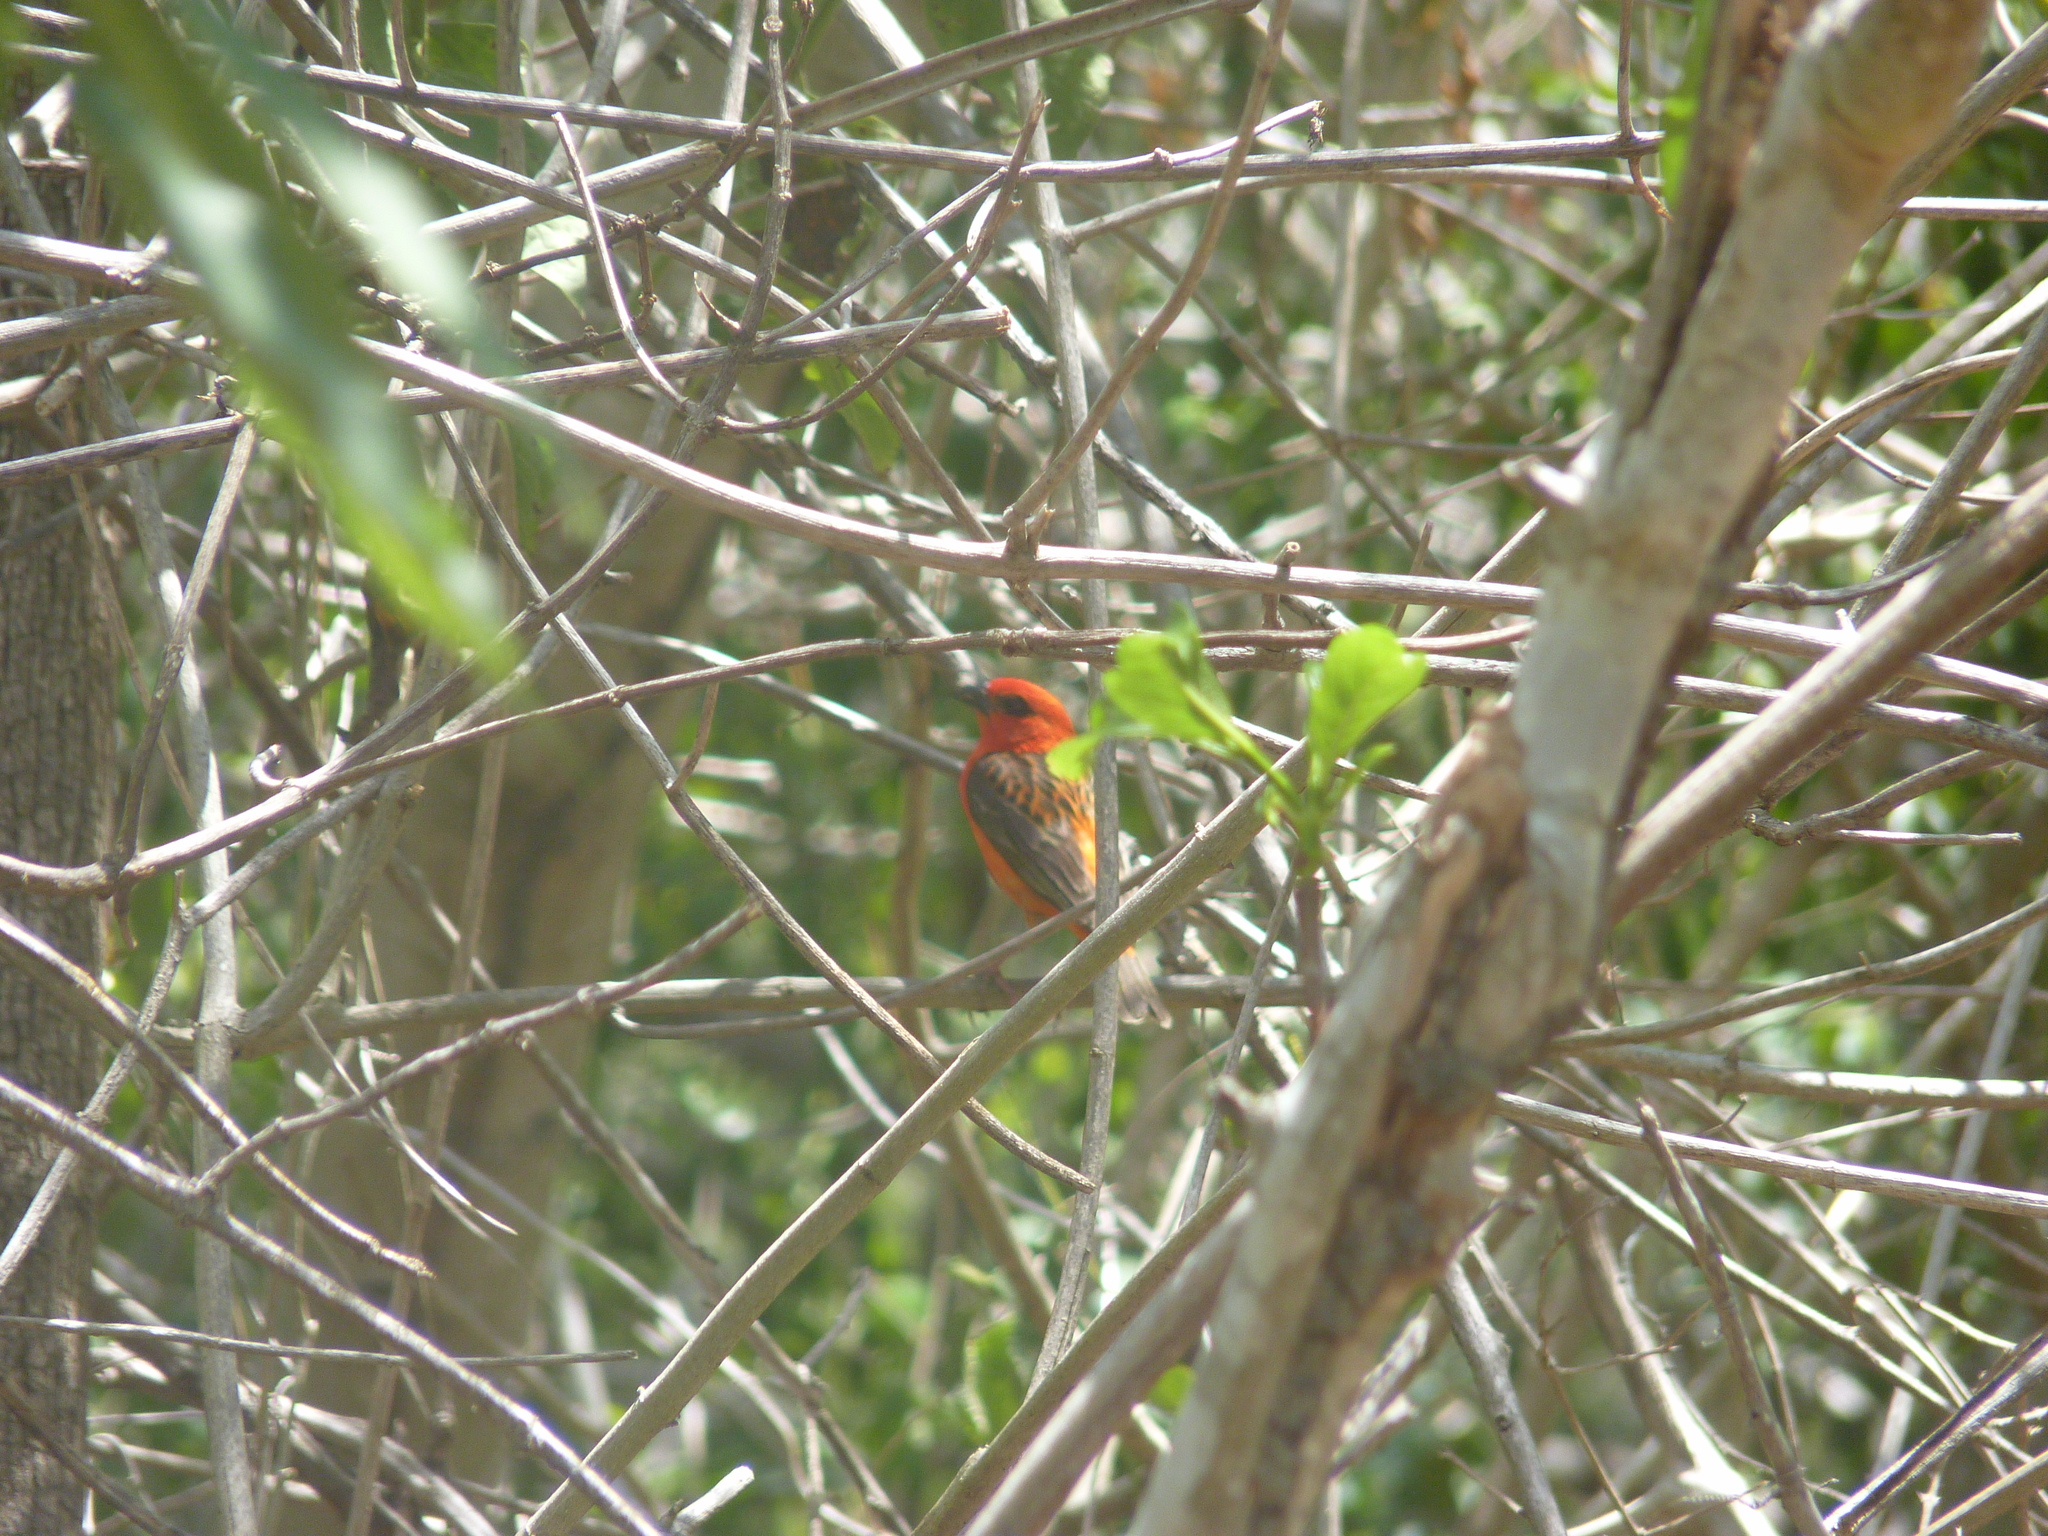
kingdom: Animalia
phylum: Chordata
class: Aves
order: Passeriformes
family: Ploceidae
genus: Foudia
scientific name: Foudia madagascariensis
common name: Red fody
